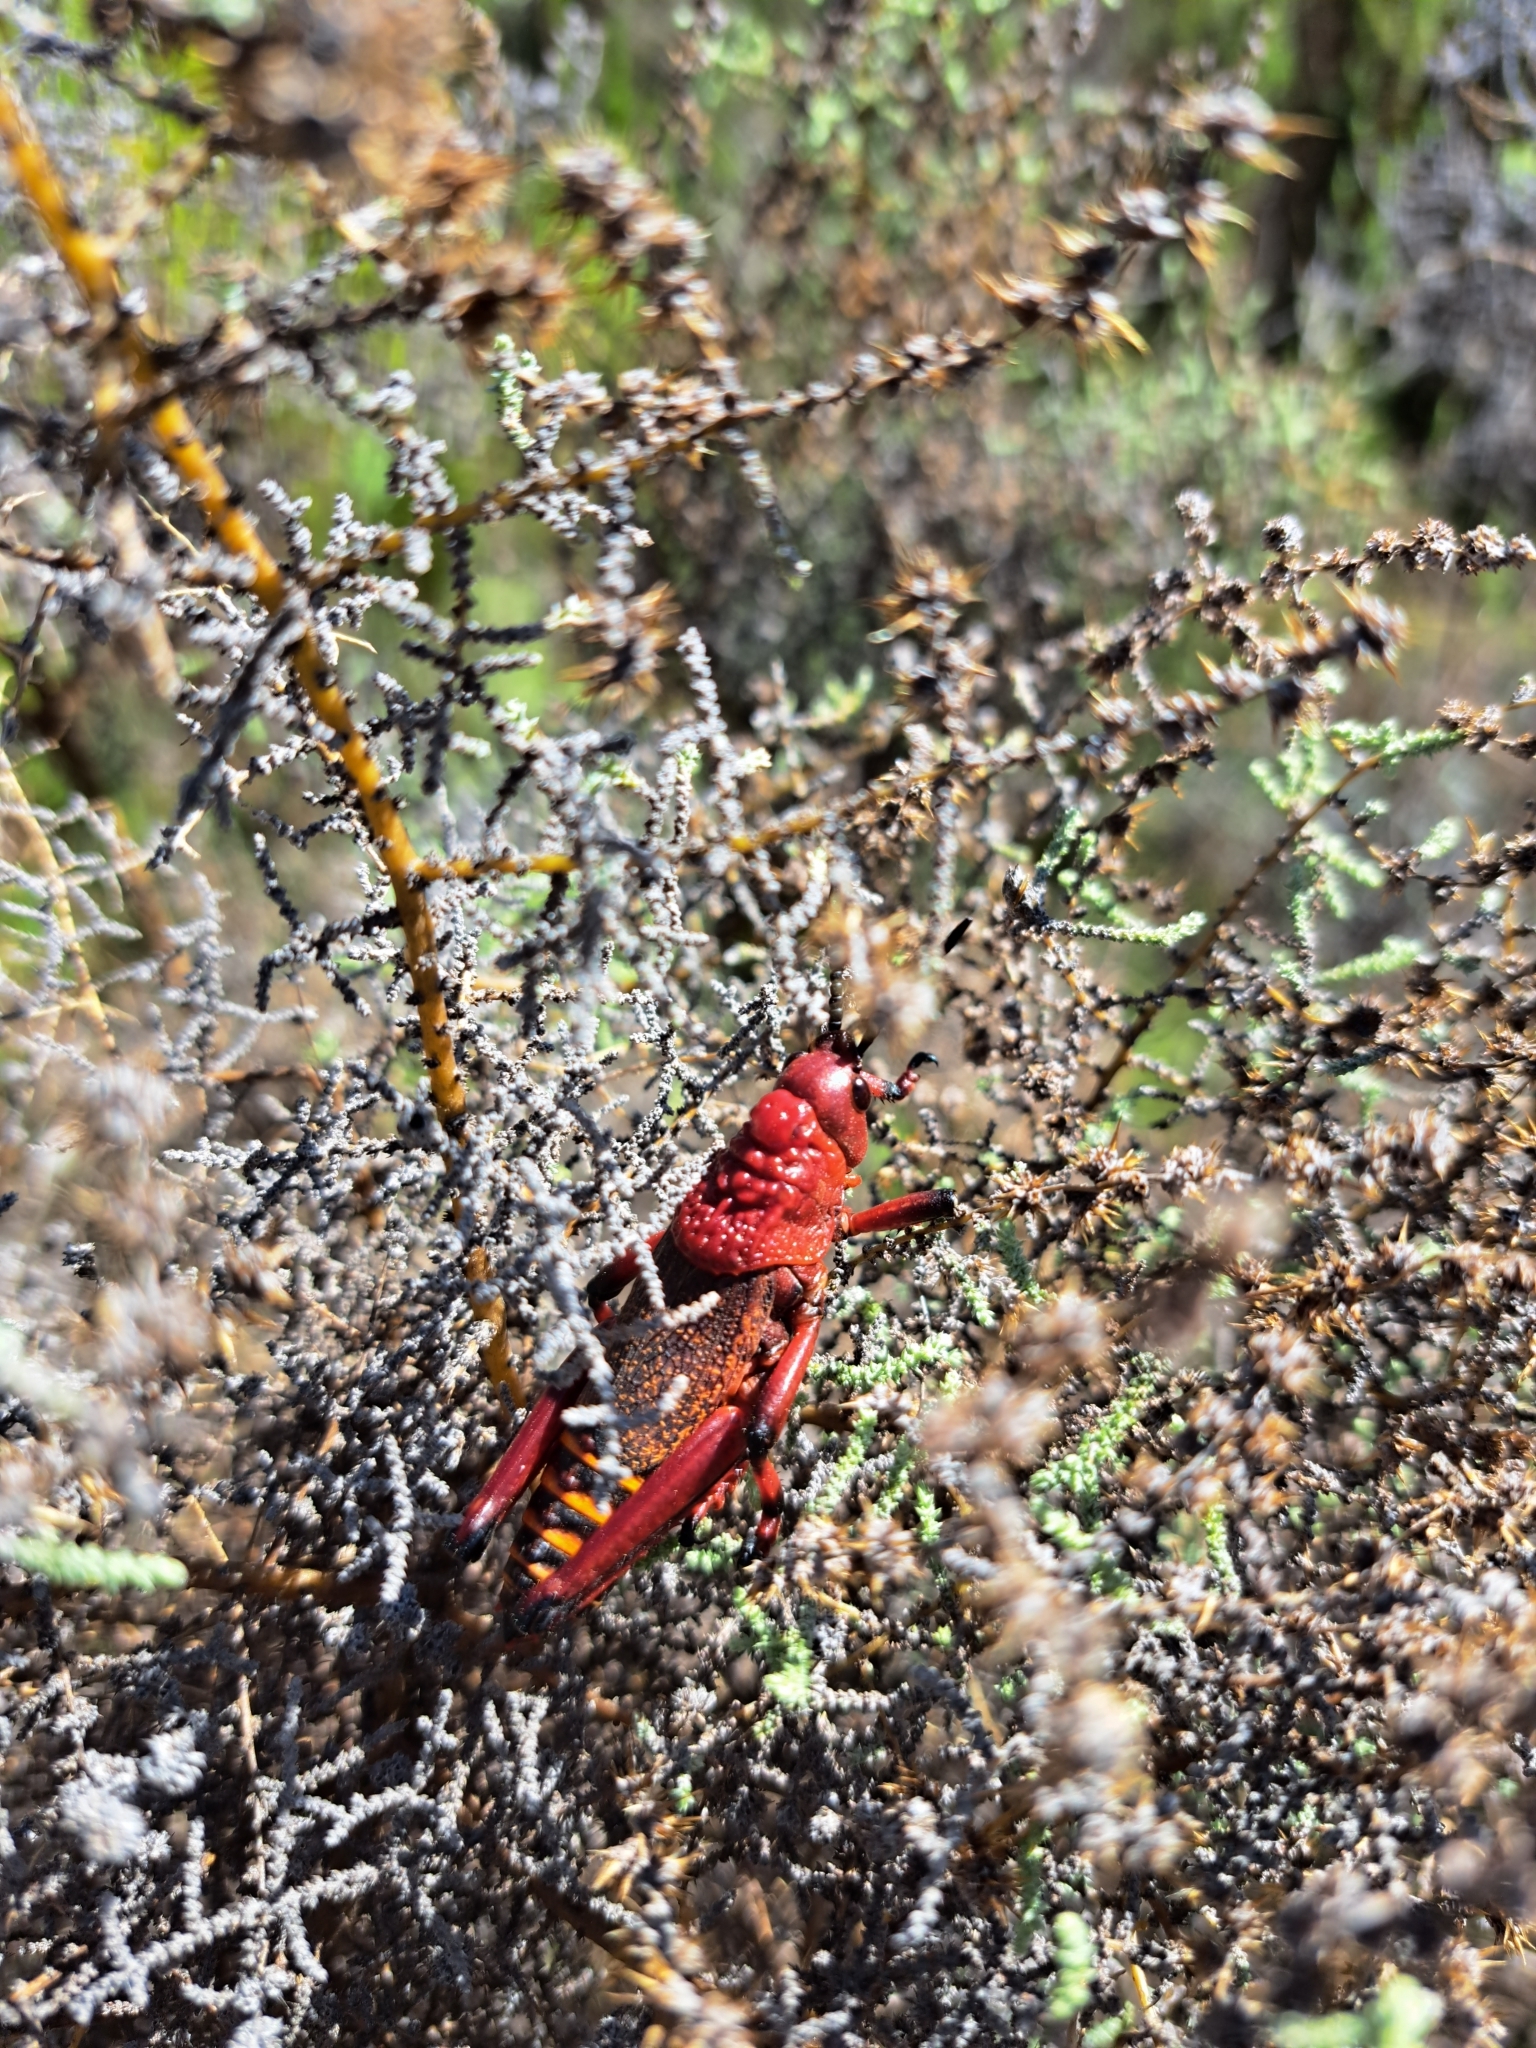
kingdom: Animalia
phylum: Arthropoda
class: Insecta
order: Orthoptera
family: Pyrgomorphidae
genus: Phymateus
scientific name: Phymateus morbillosus
